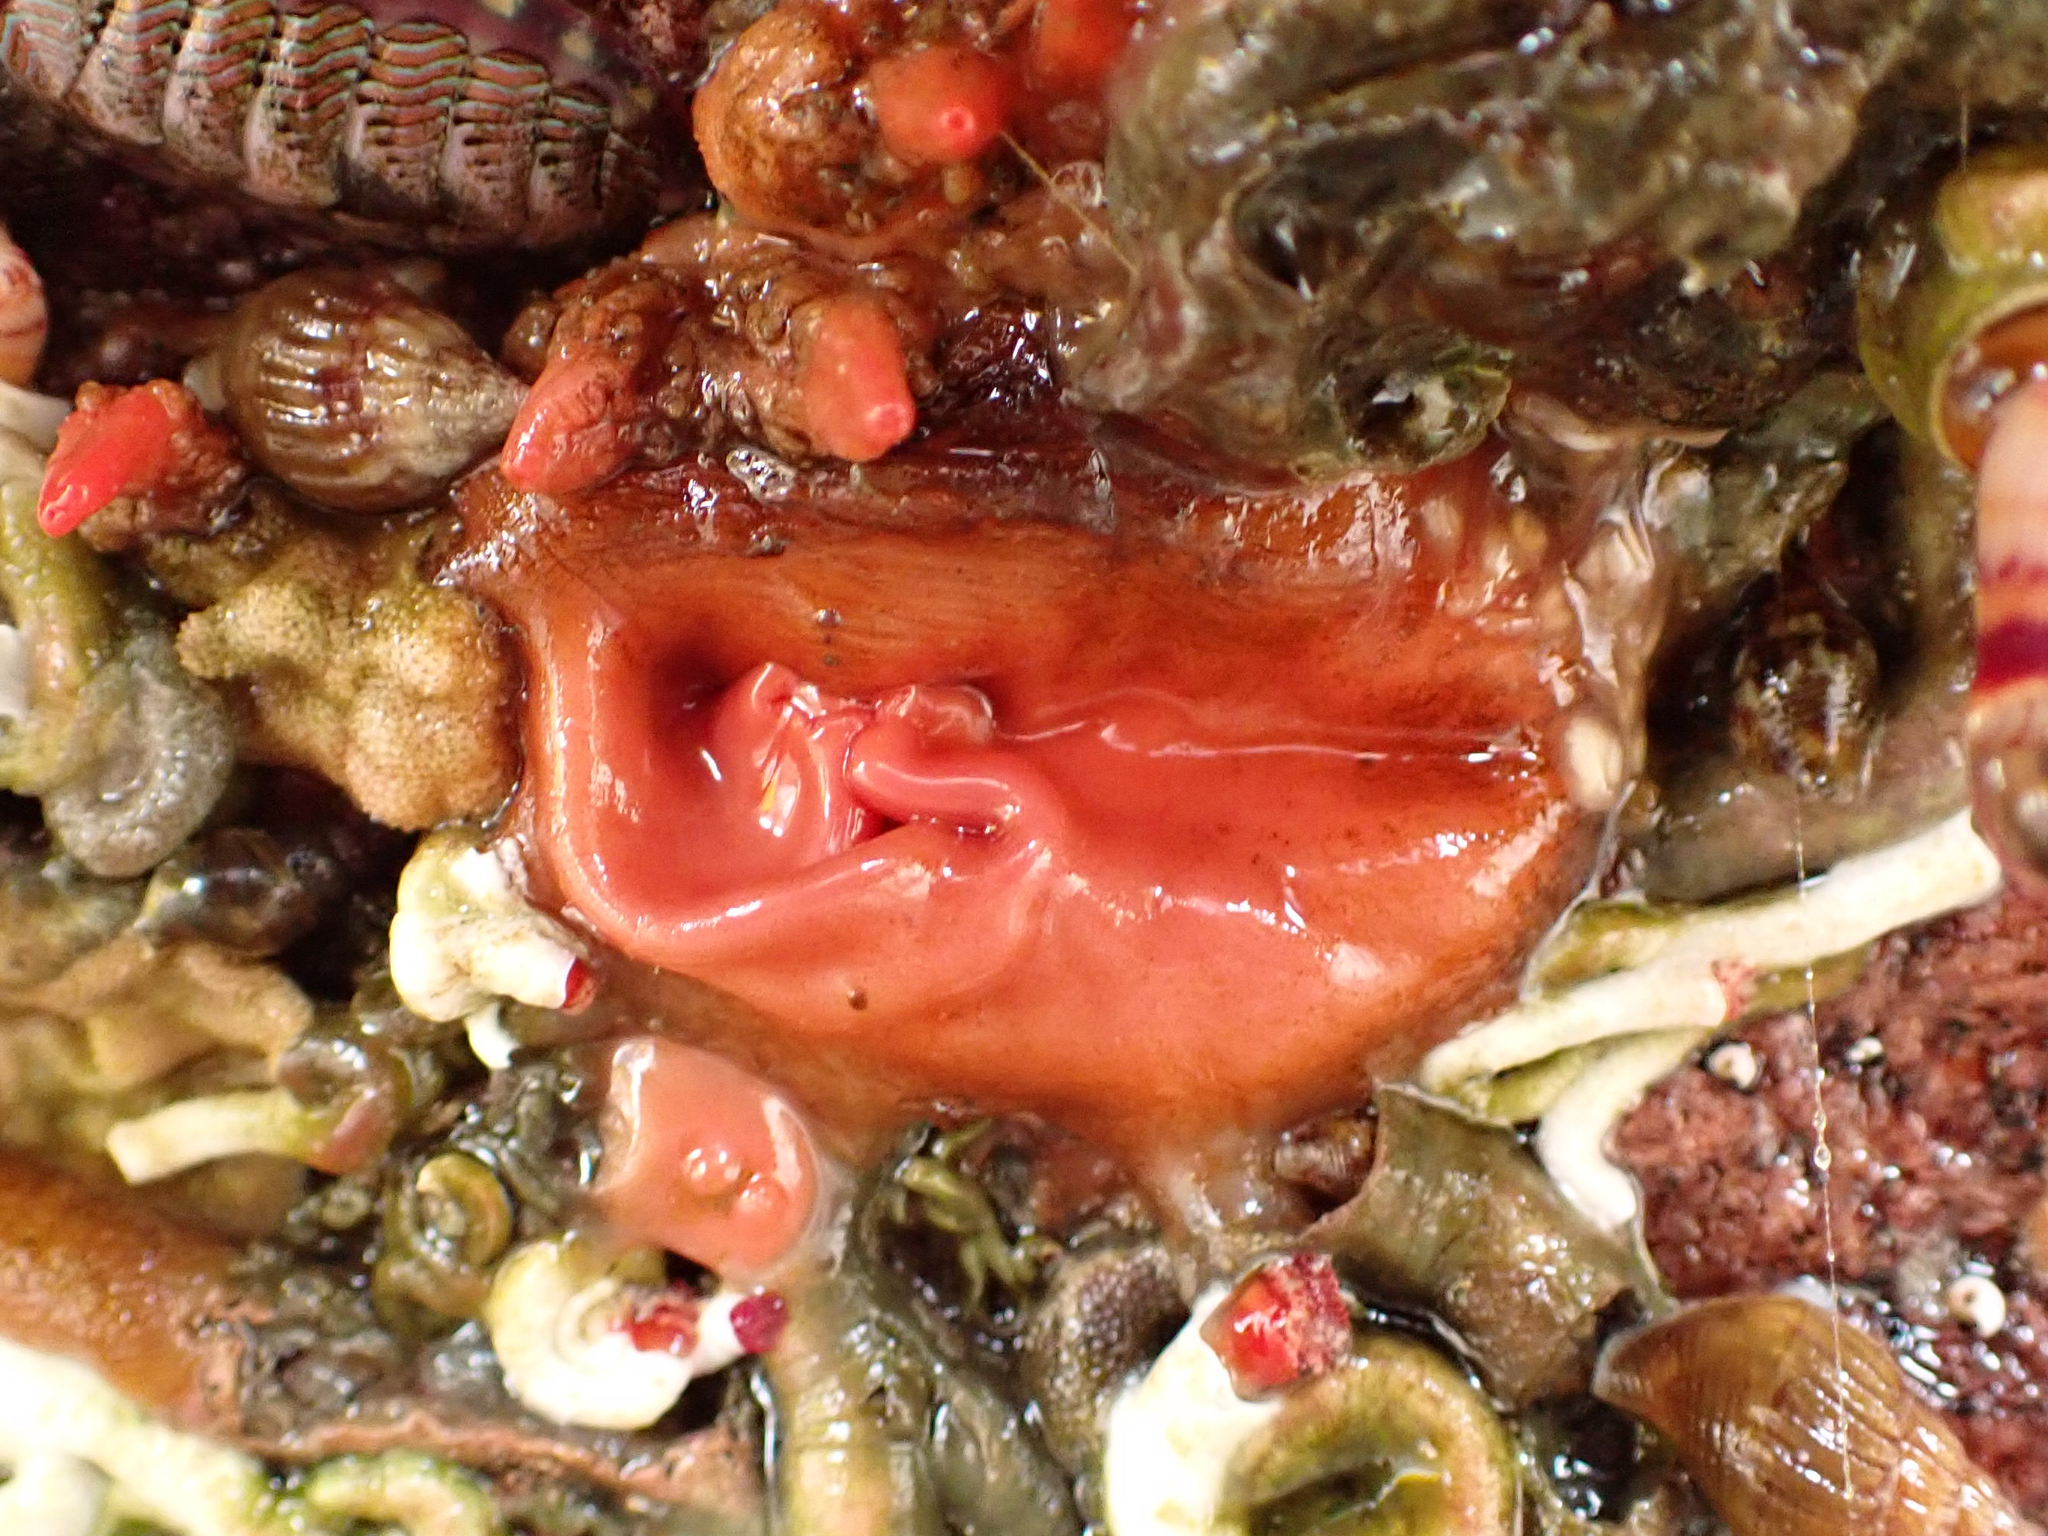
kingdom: Animalia
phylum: Chordata
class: Ascidiacea
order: Stolidobranchia
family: Styelidae
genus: Cnemidocarpa
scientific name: Cnemidocarpa finmarkiensis
